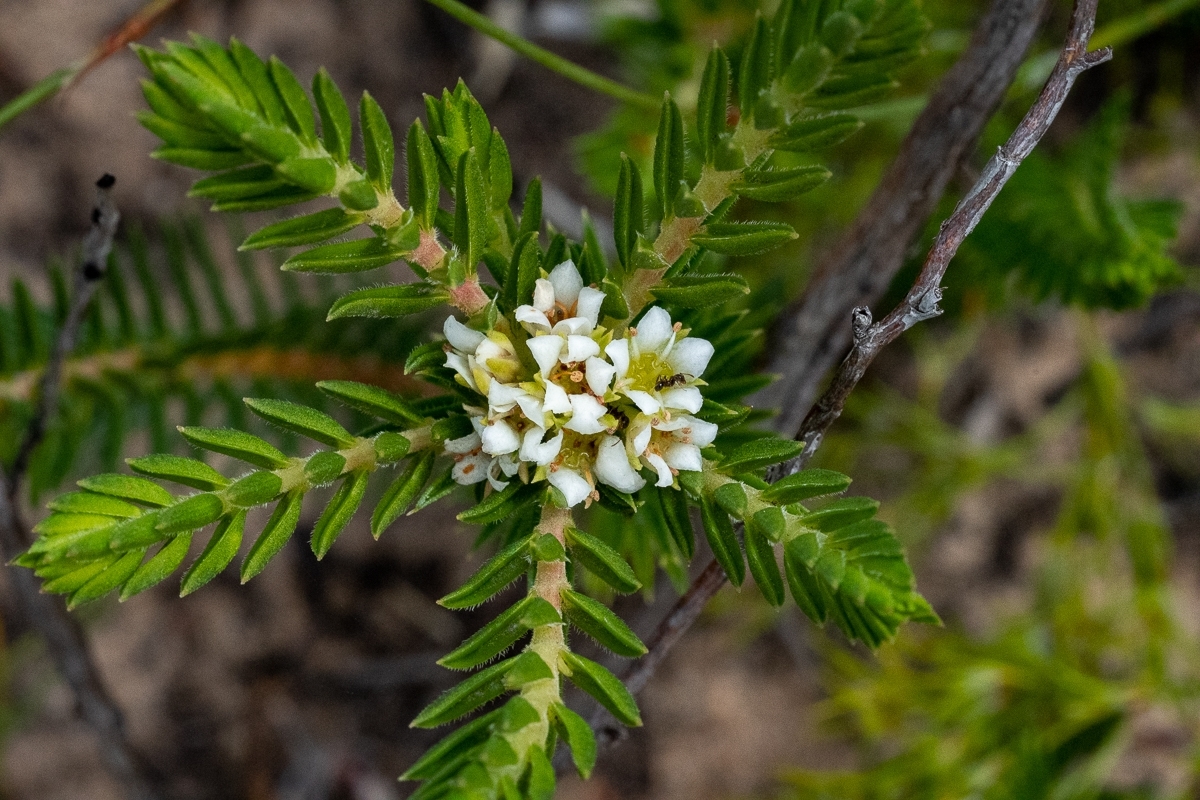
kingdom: Plantae
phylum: Tracheophyta
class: Magnoliopsida
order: Sapindales
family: Rutaceae
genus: Diosma
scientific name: Diosma oppositifolia
